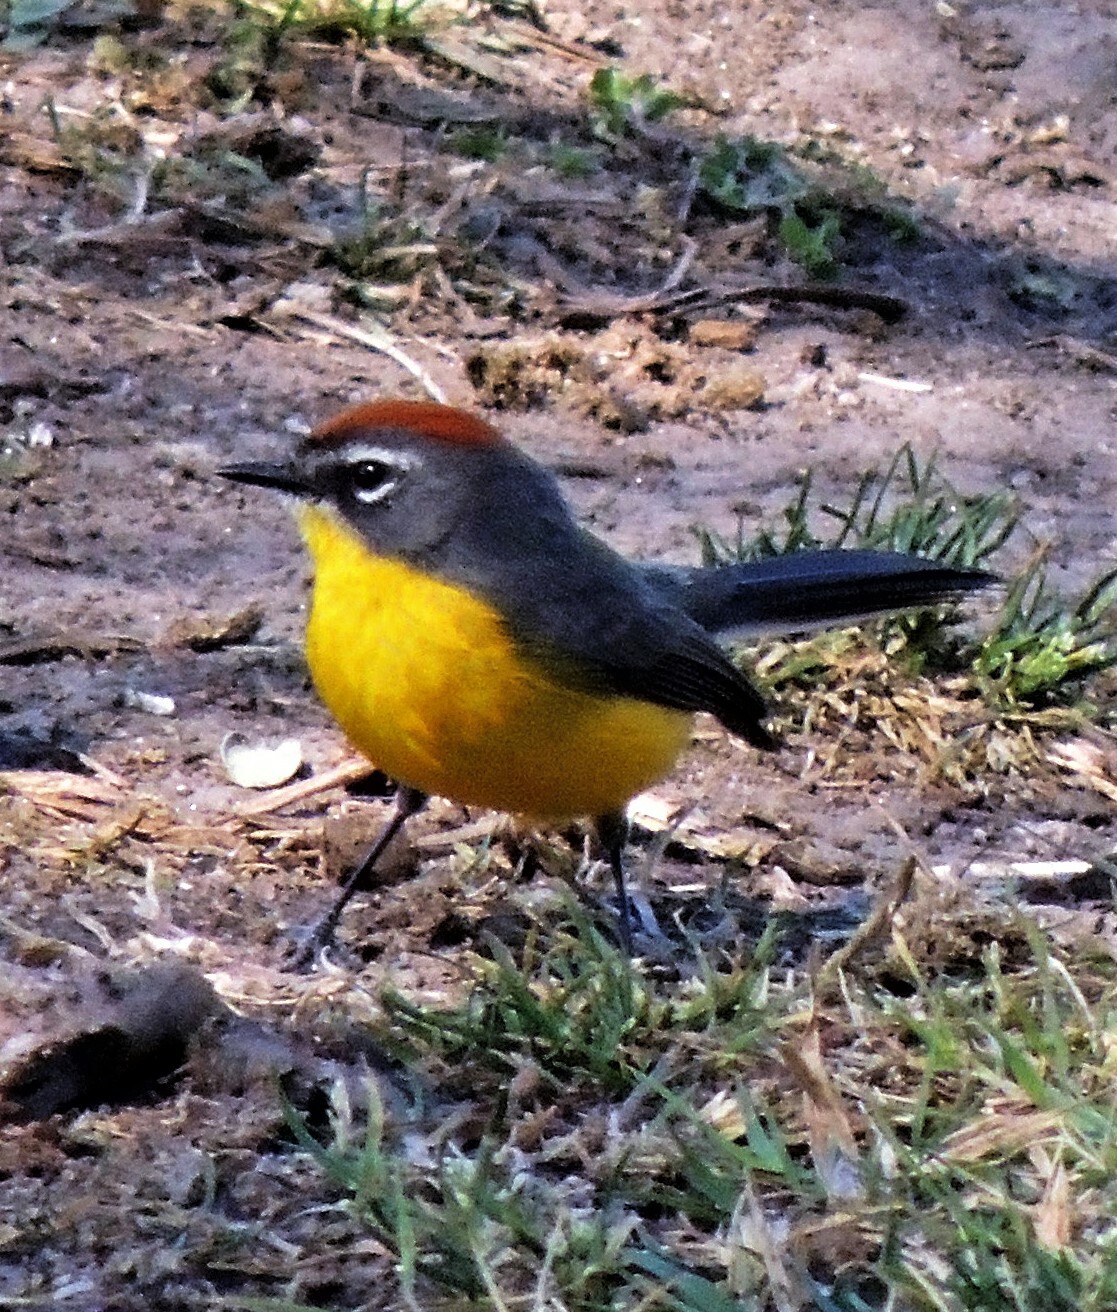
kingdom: Animalia
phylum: Chordata
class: Aves
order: Passeriformes
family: Parulidae
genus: Myioborus
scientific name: Myioborus brunniceps
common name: Brown-capped whitestart
